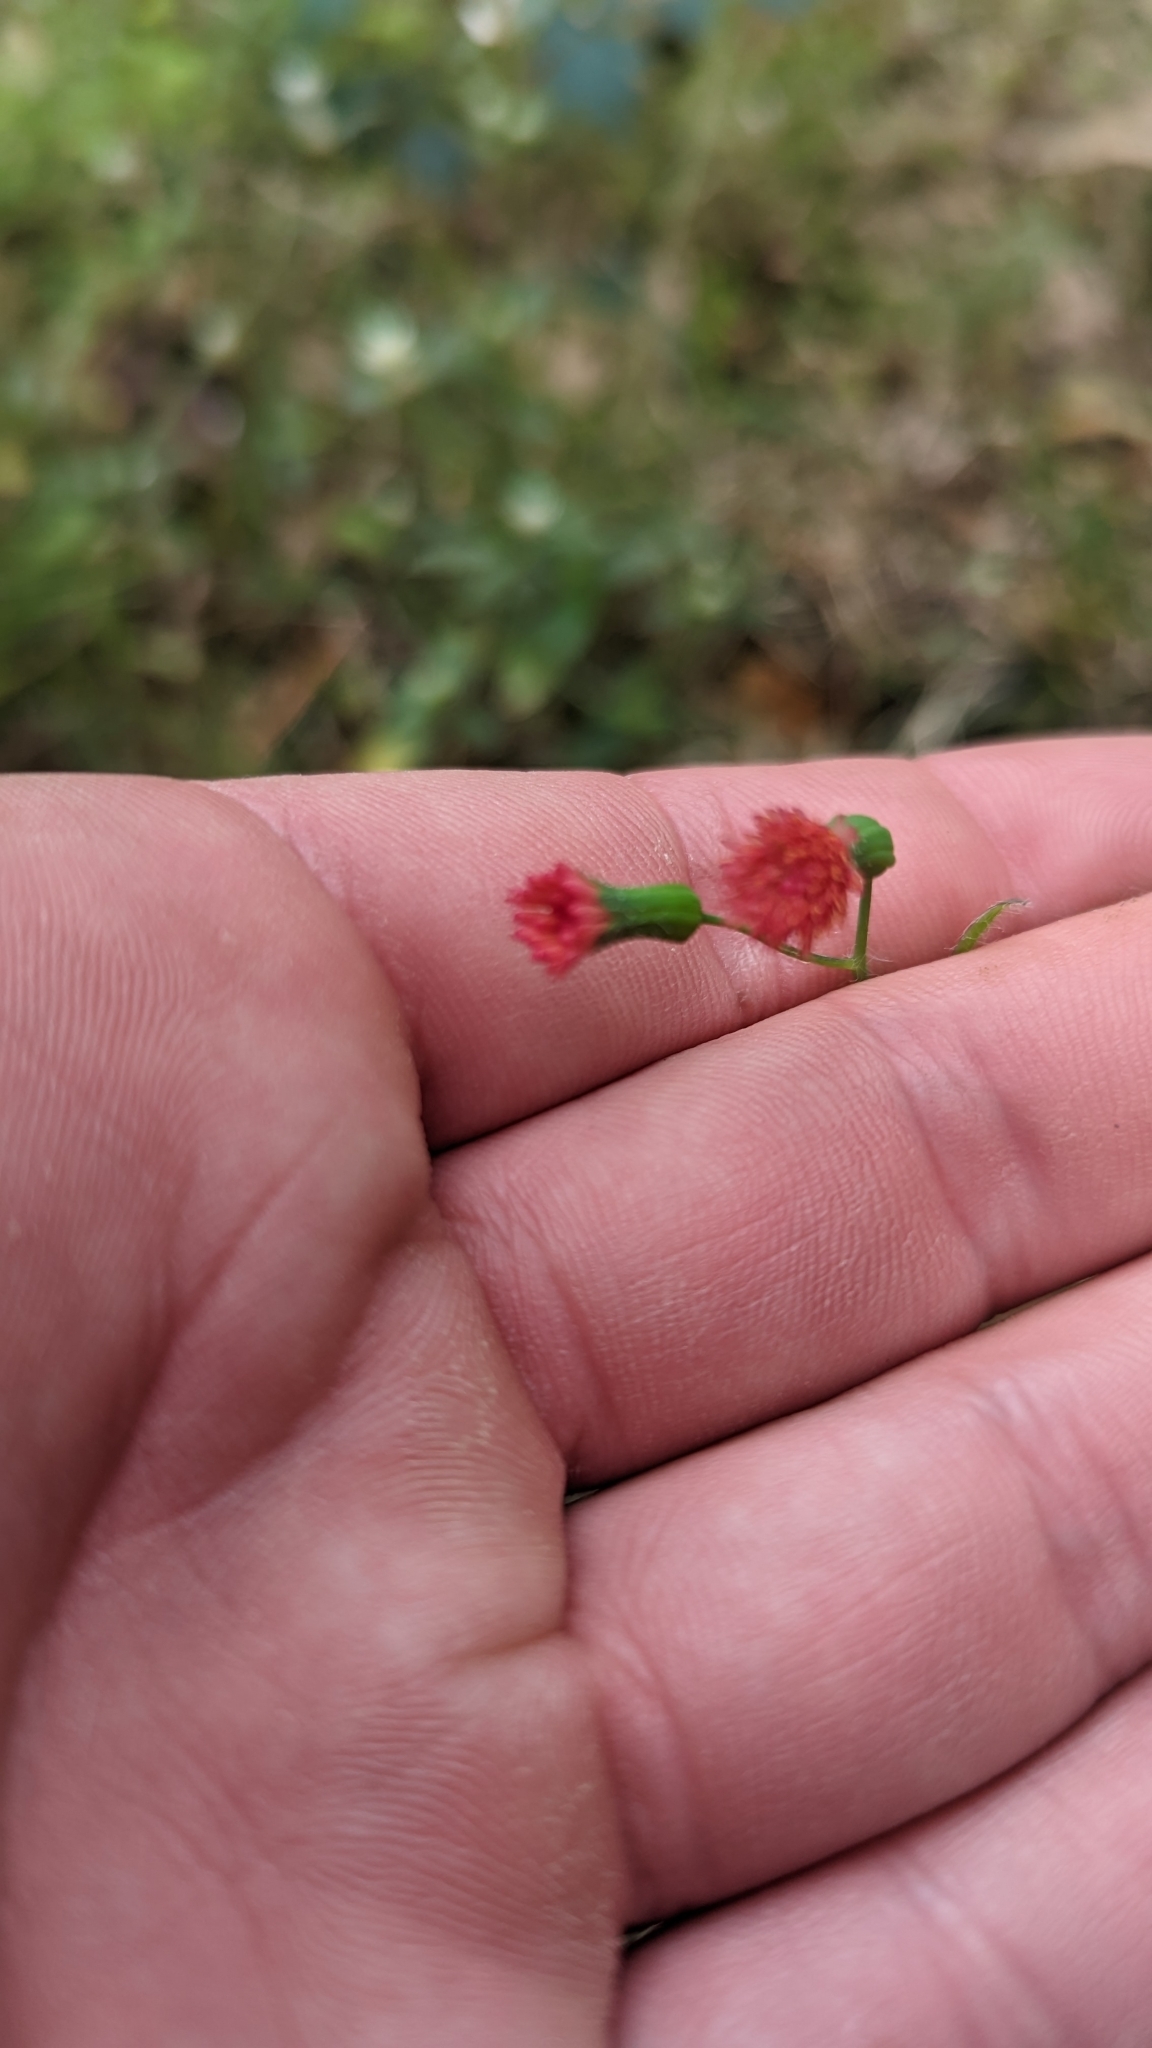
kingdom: Plantae
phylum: Tracheophyta
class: Magnoliopsida
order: Asterales
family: Asteraceae
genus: Emilia
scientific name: Emilia fosbergii
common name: Florida tasselflower
